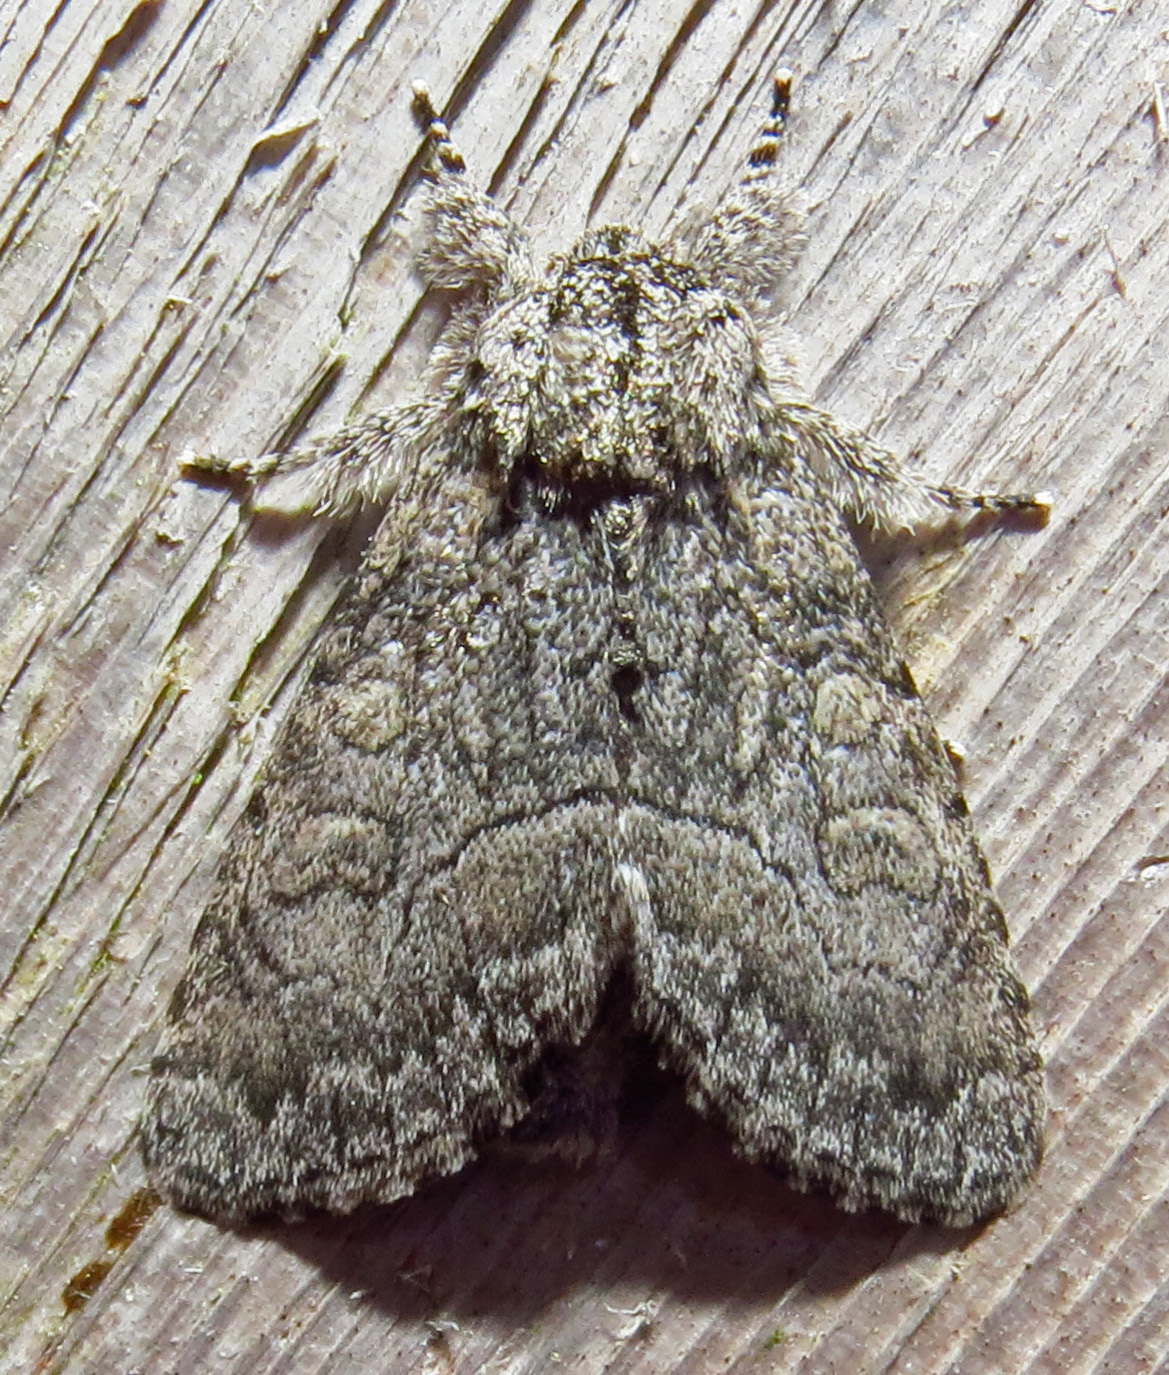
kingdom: Animalia
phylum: Arthropoda
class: Insecta
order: Lepidoptera
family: Noctuidae
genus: Raphia
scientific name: Raphia frater
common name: Brother
